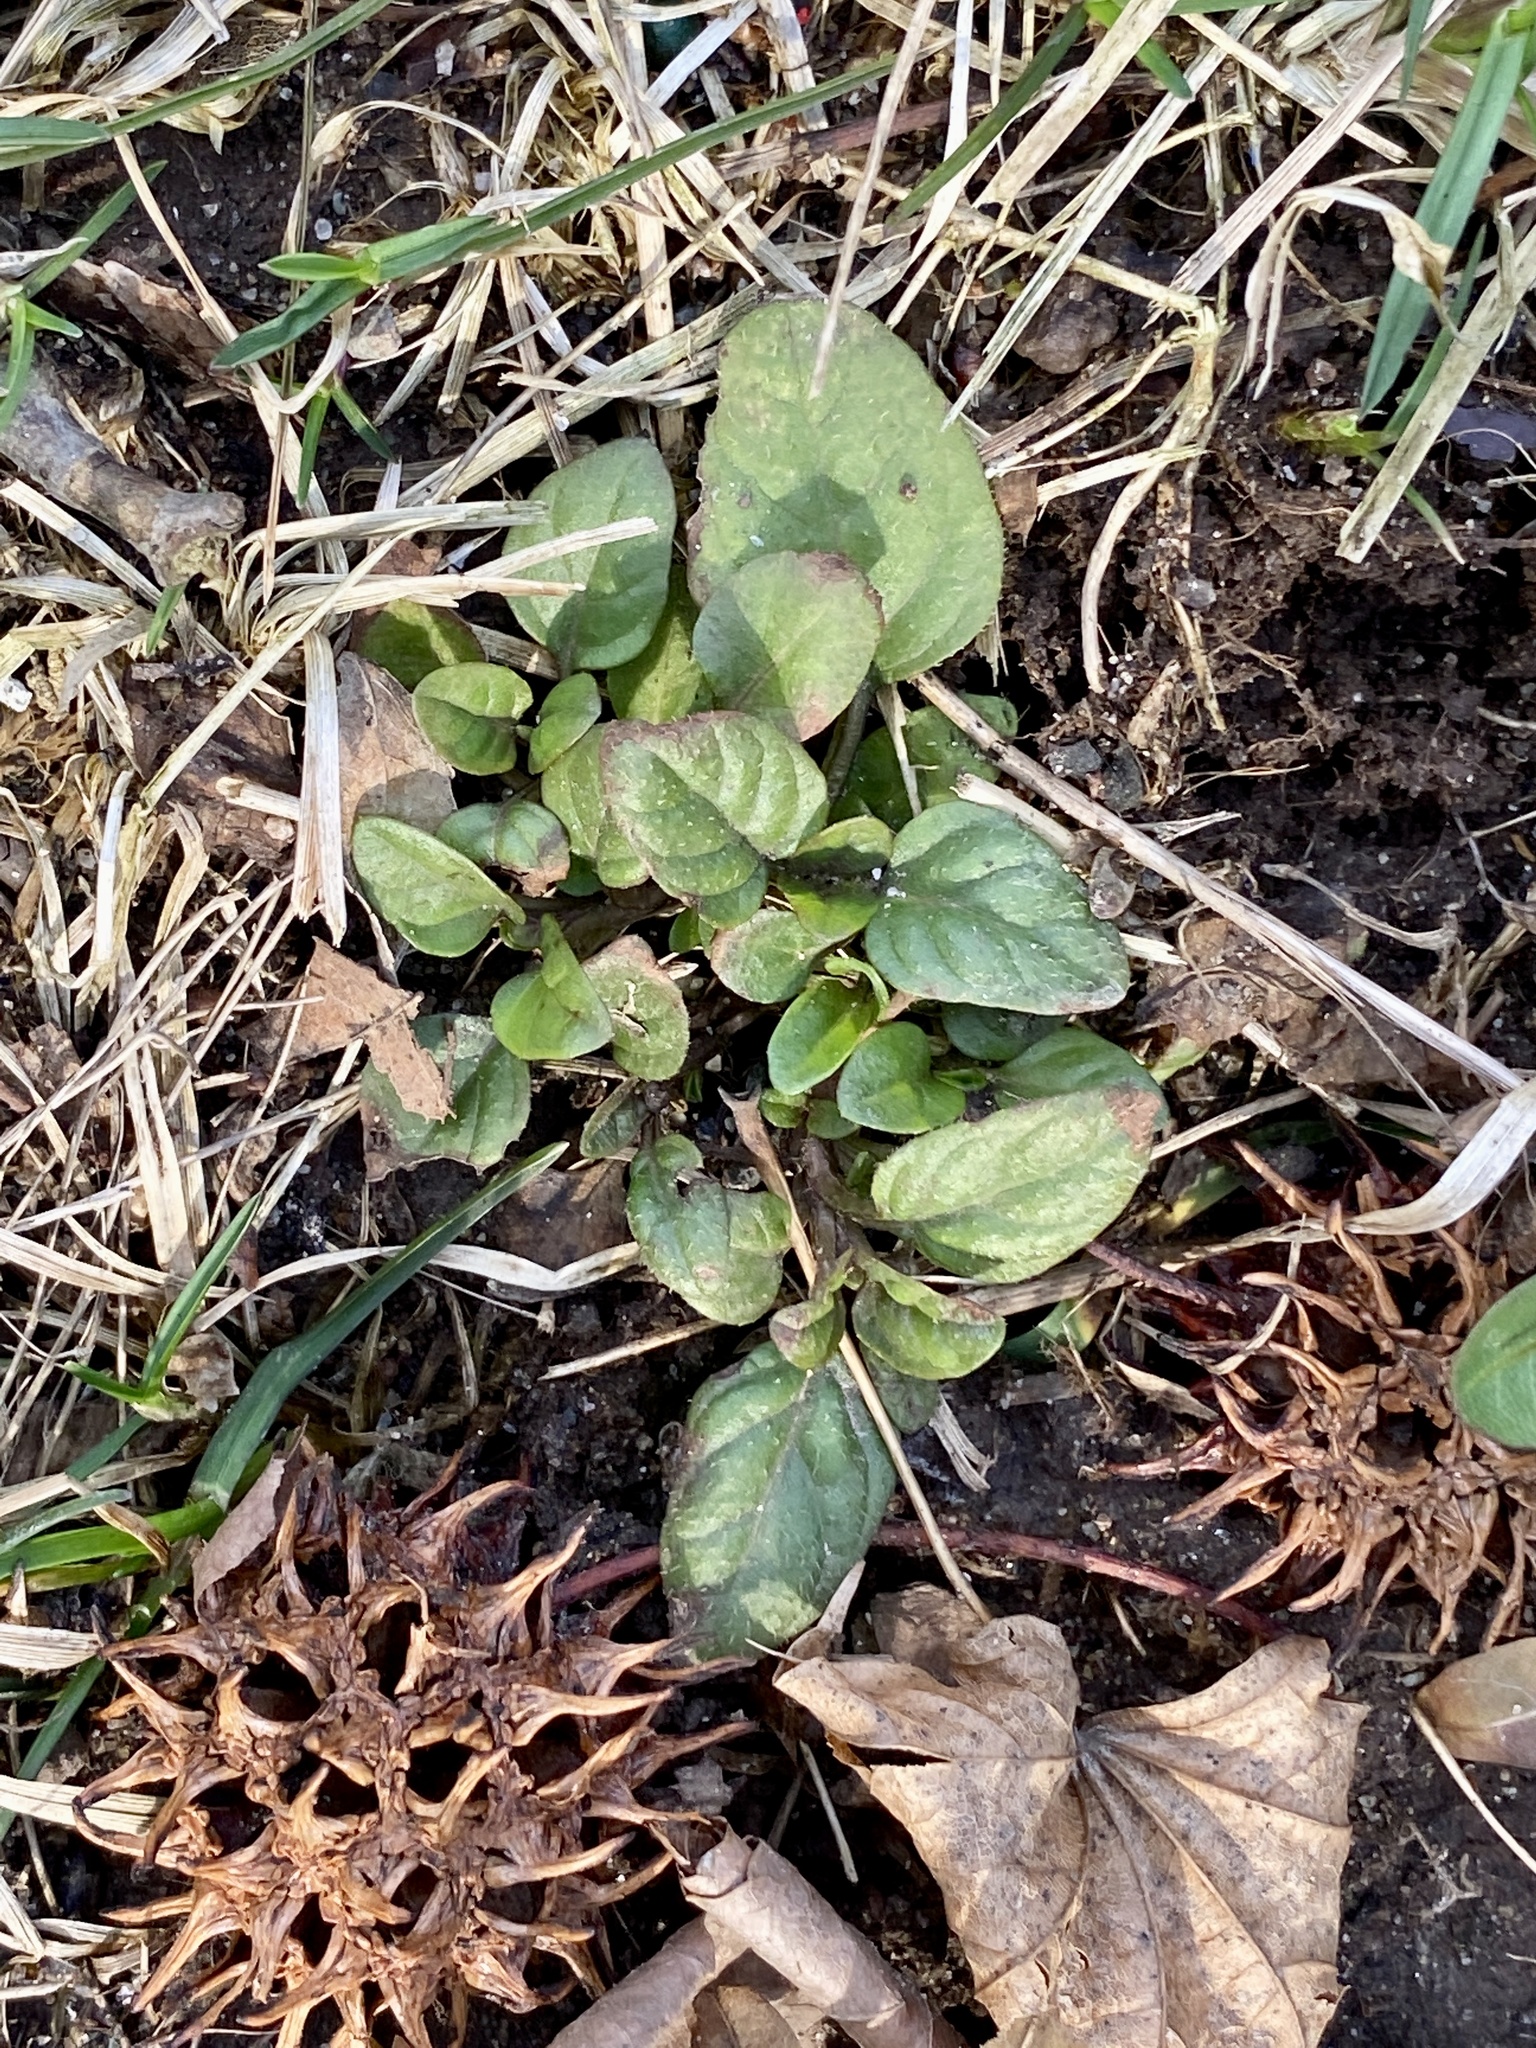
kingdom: Plantae
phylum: Tracheophyta
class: Magnoliopsida
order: Lamiales
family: Lamiaceae
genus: Prunella
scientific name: Prunella vulgaris
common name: Heal-all
